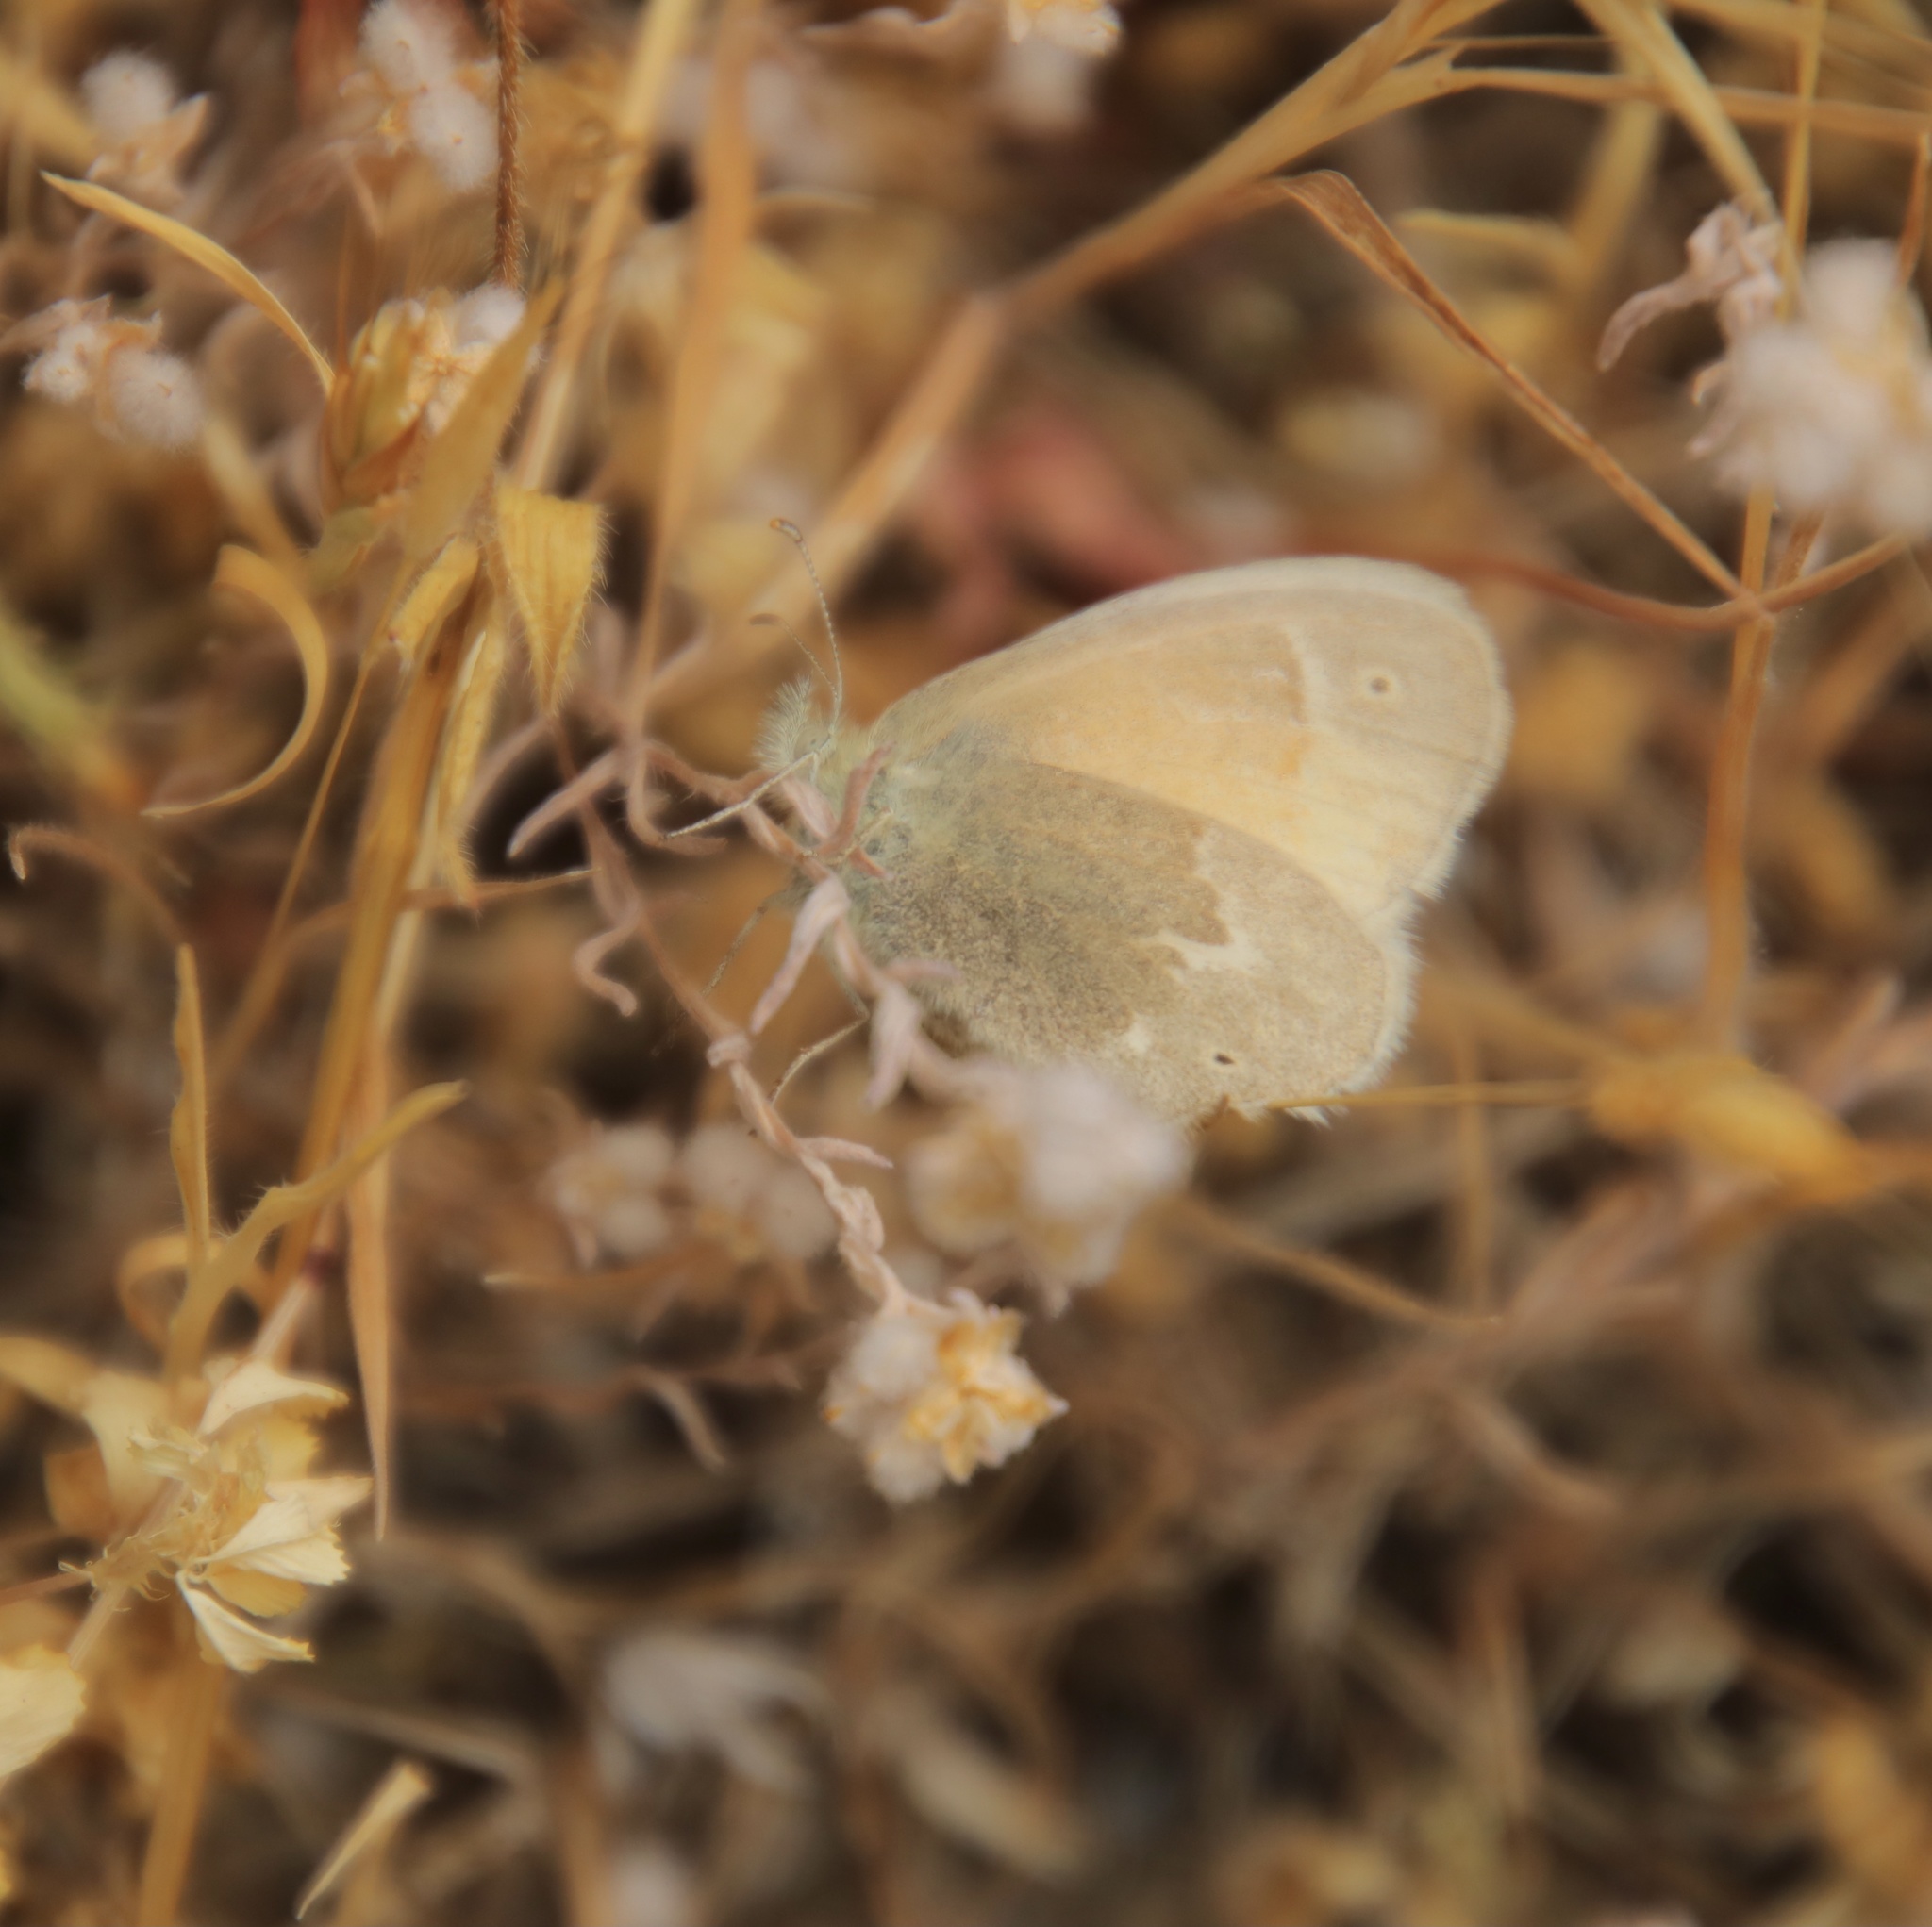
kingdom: Animalia
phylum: Arthropoda
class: Insecta
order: Lepidoptera
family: Nymphalidae
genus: Coenonympha
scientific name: Coenonympha california
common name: Common ringlet
